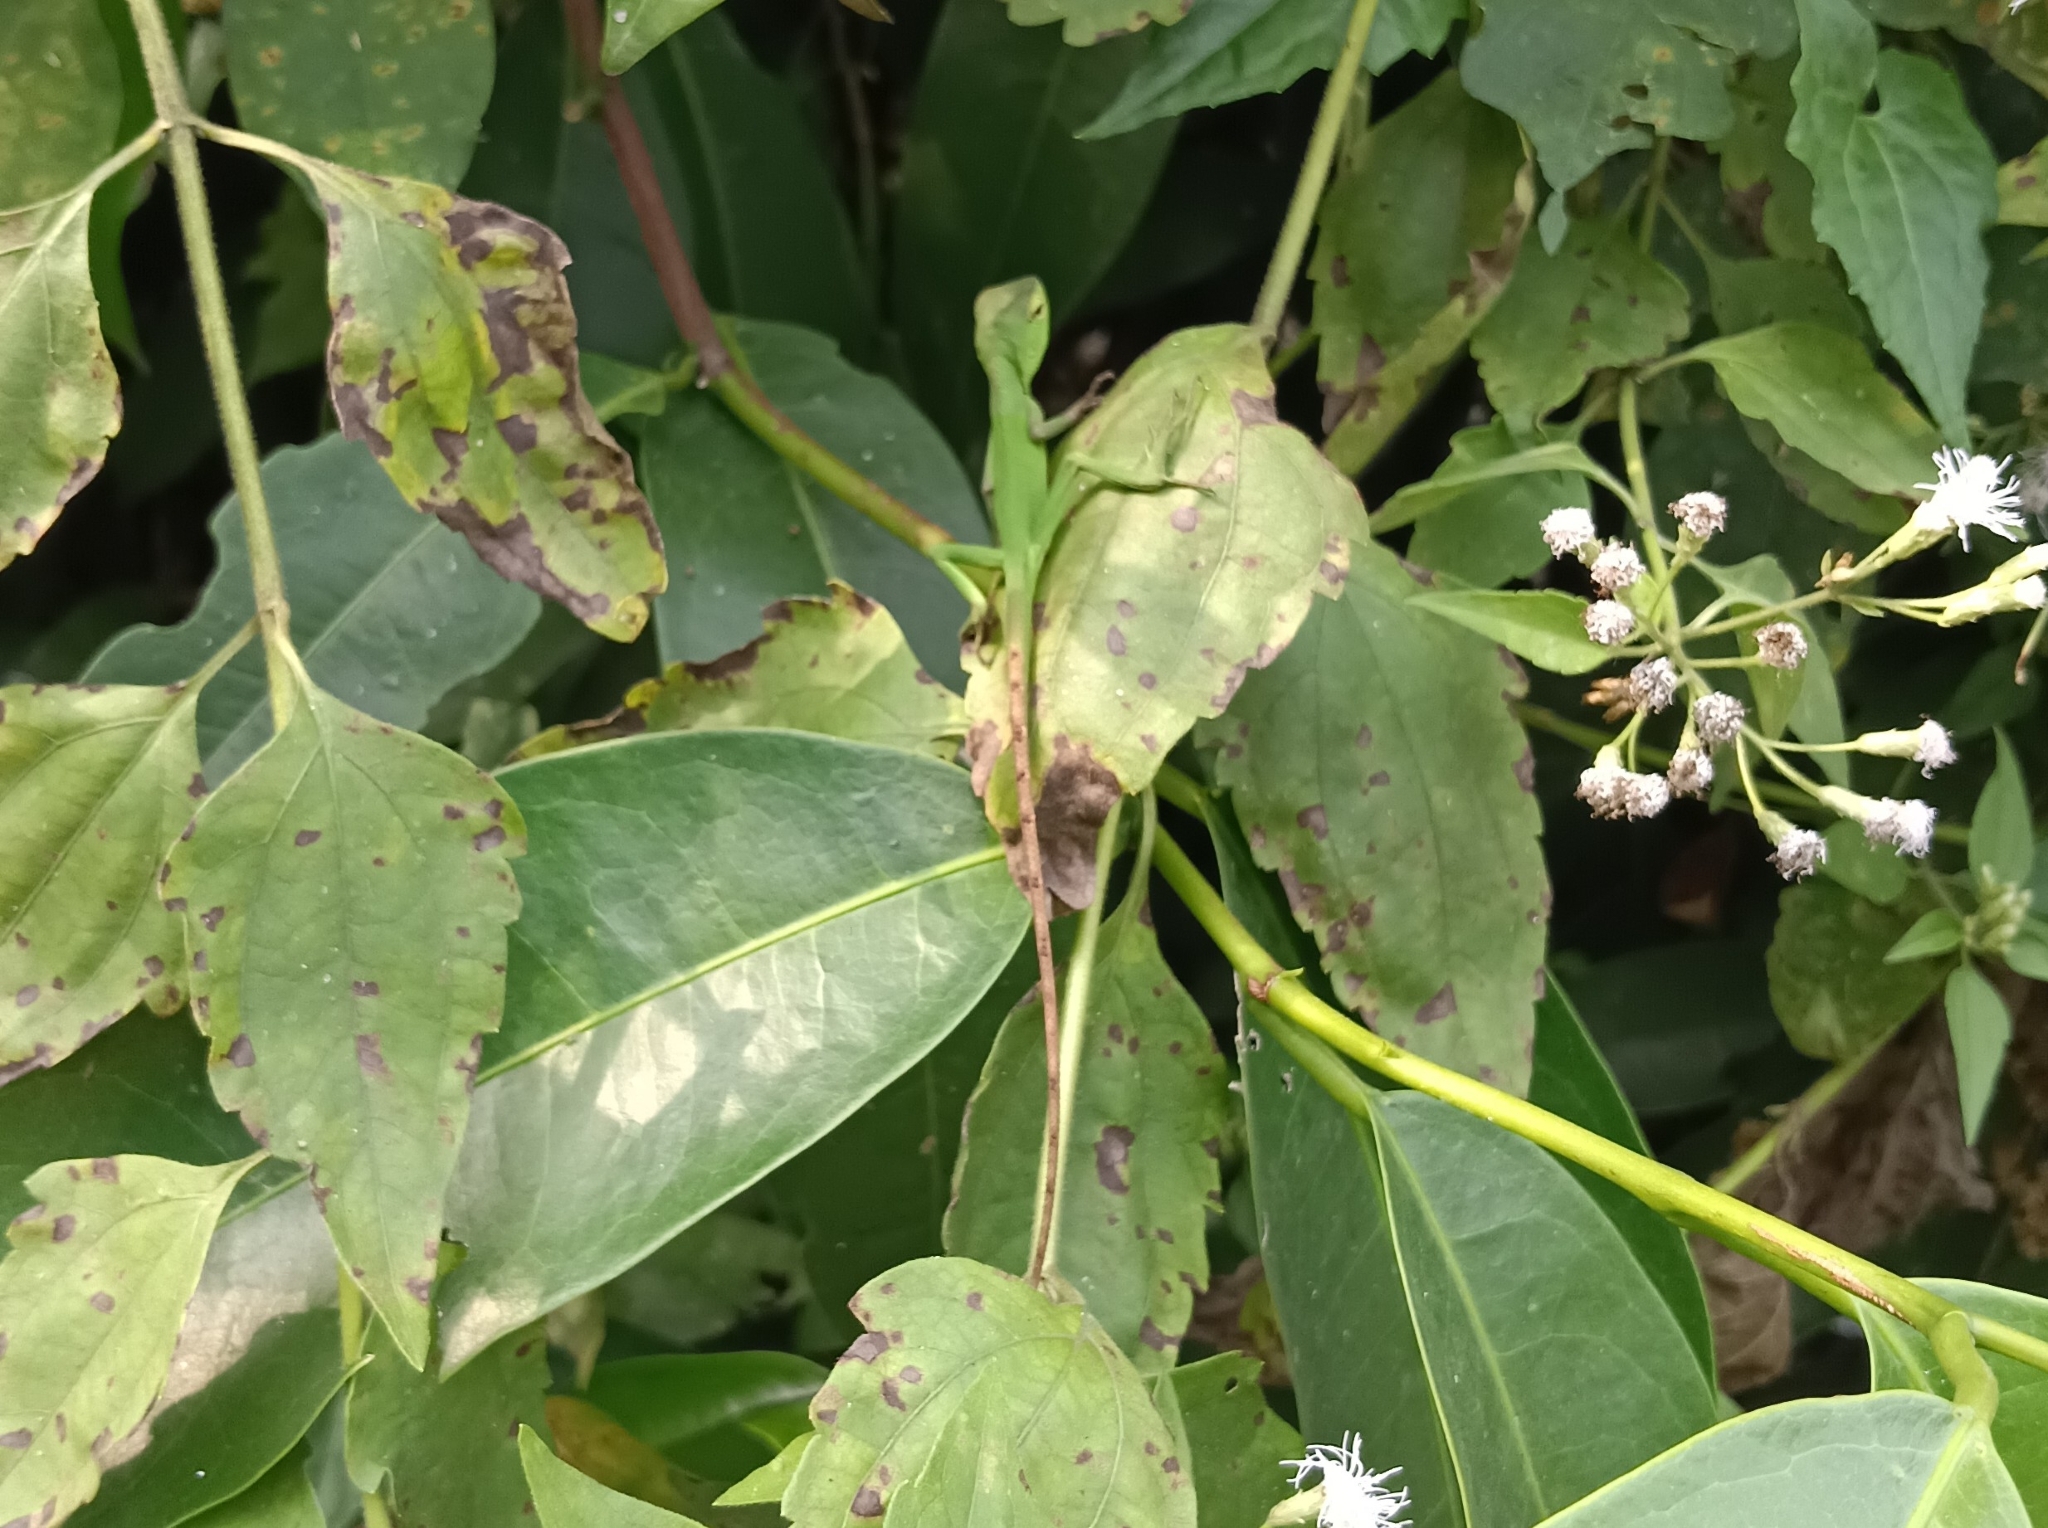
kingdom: Animalia
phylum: Chordata
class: Squamata
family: Agamidae
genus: Calotes
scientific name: Calotes calotes
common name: Common green forest lizard
